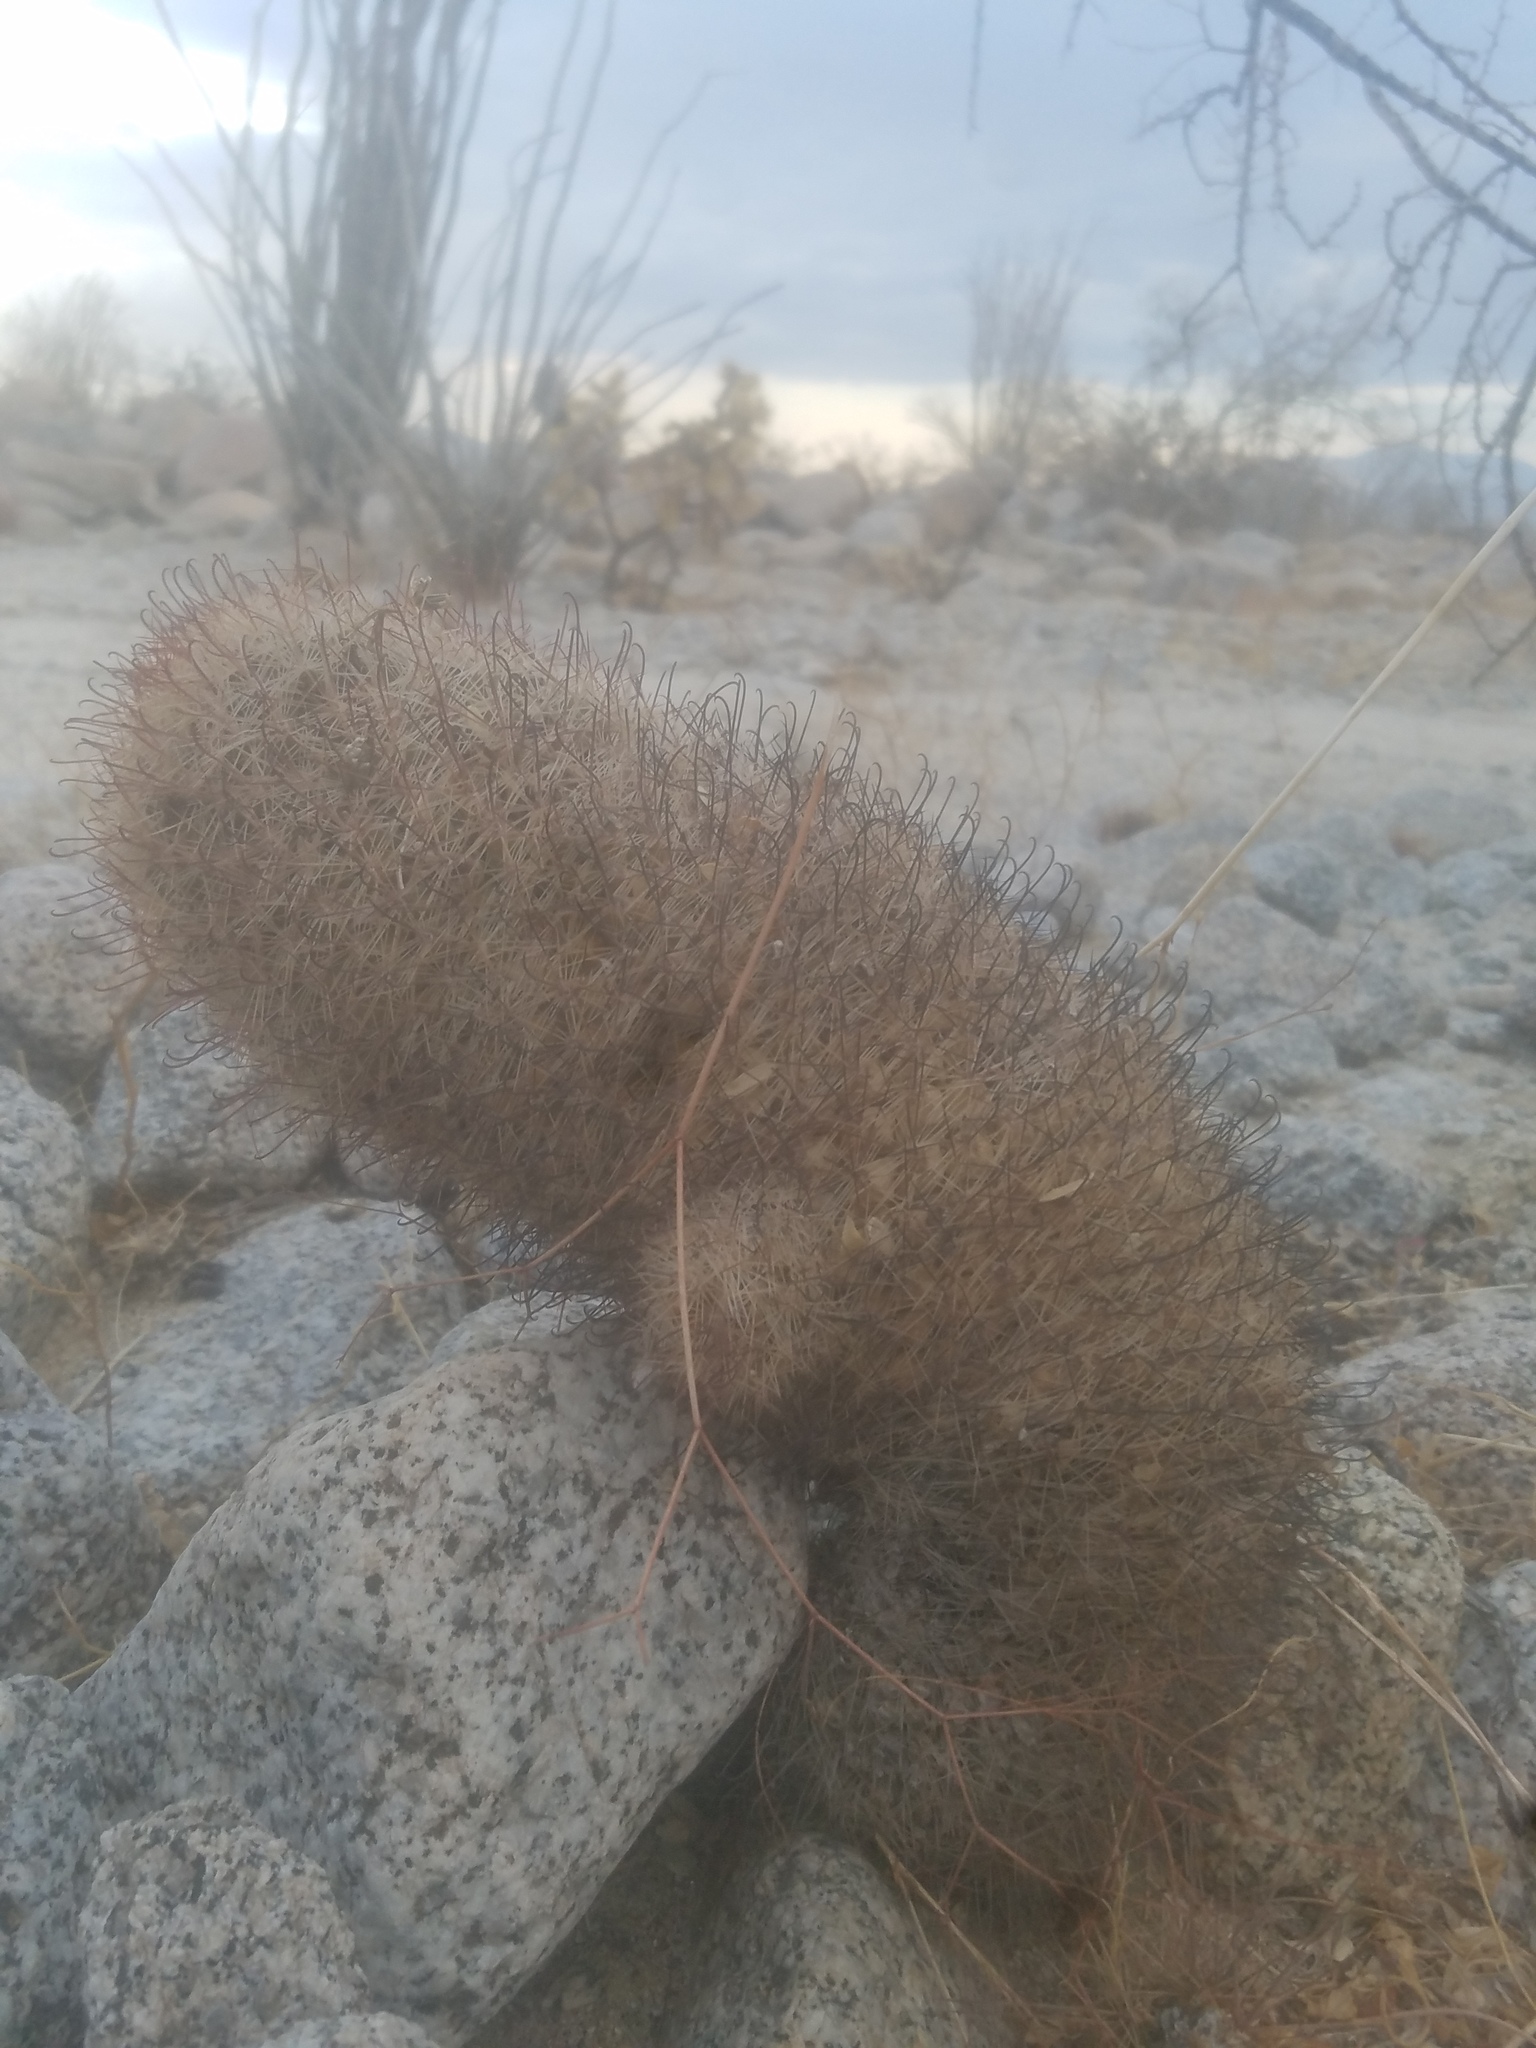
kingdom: Plantae
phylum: Tracheophyta
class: Magnoliopsida
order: Caryophyllales
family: Cactaceae
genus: Cochemiea
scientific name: Cochemiea dioica
